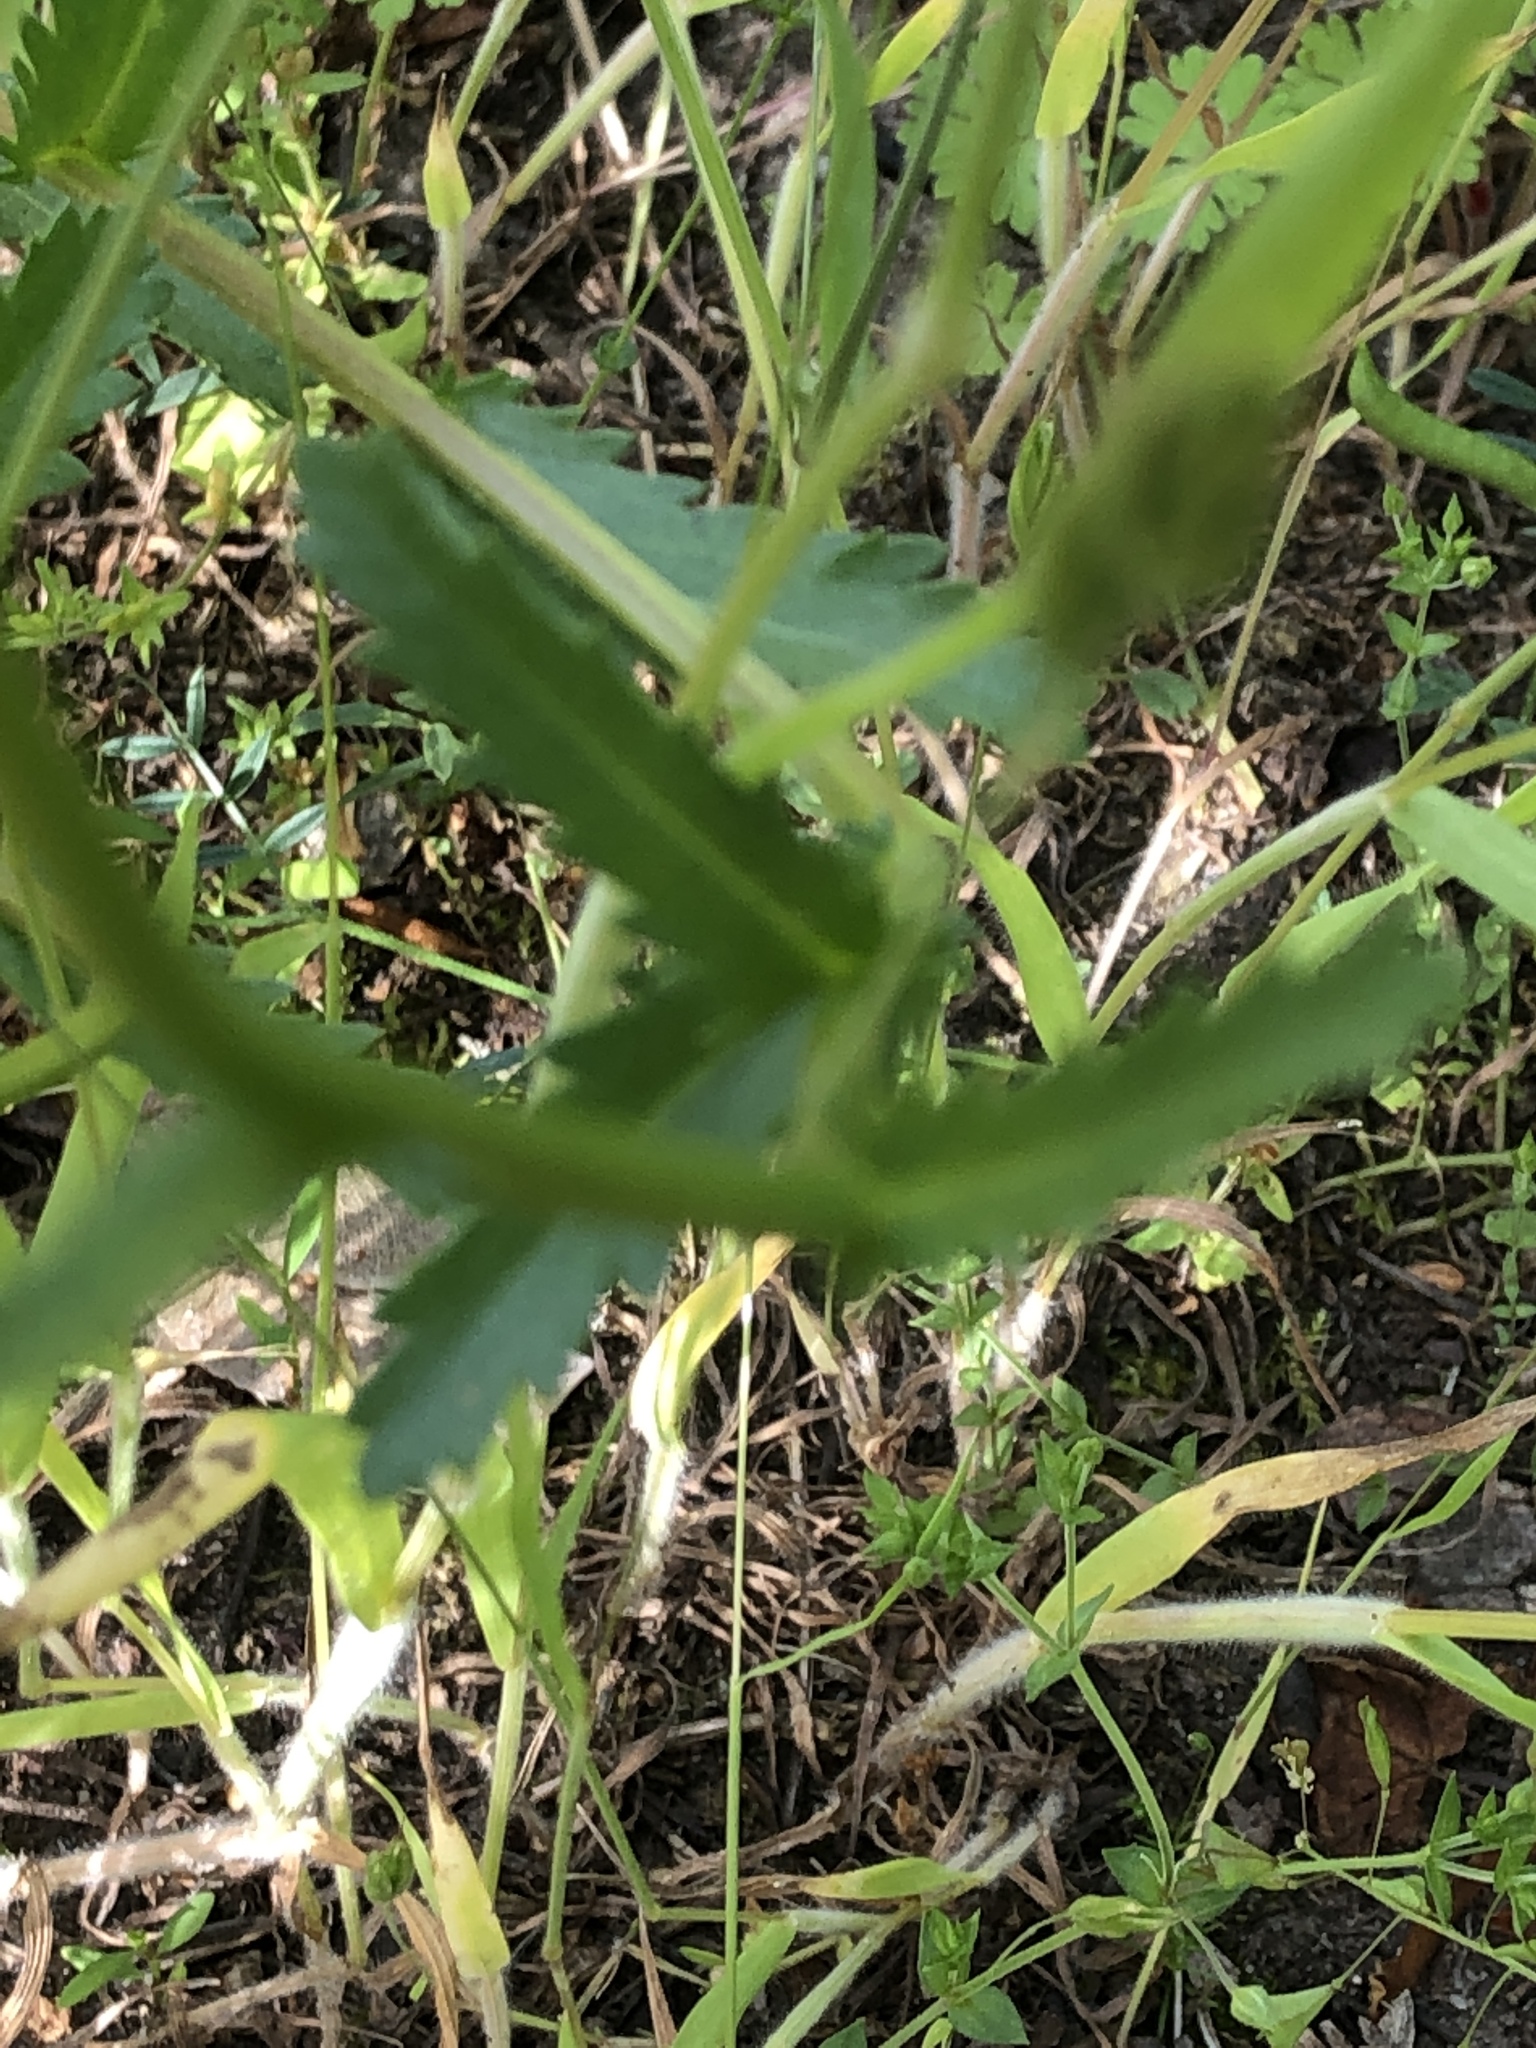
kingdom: Plantae
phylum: Tracheophyta
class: Magnoliopsida
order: Asterales
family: Asteraceae
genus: Leucanthemum
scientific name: Leucanthemum vulgare
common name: Oxeye daisy
